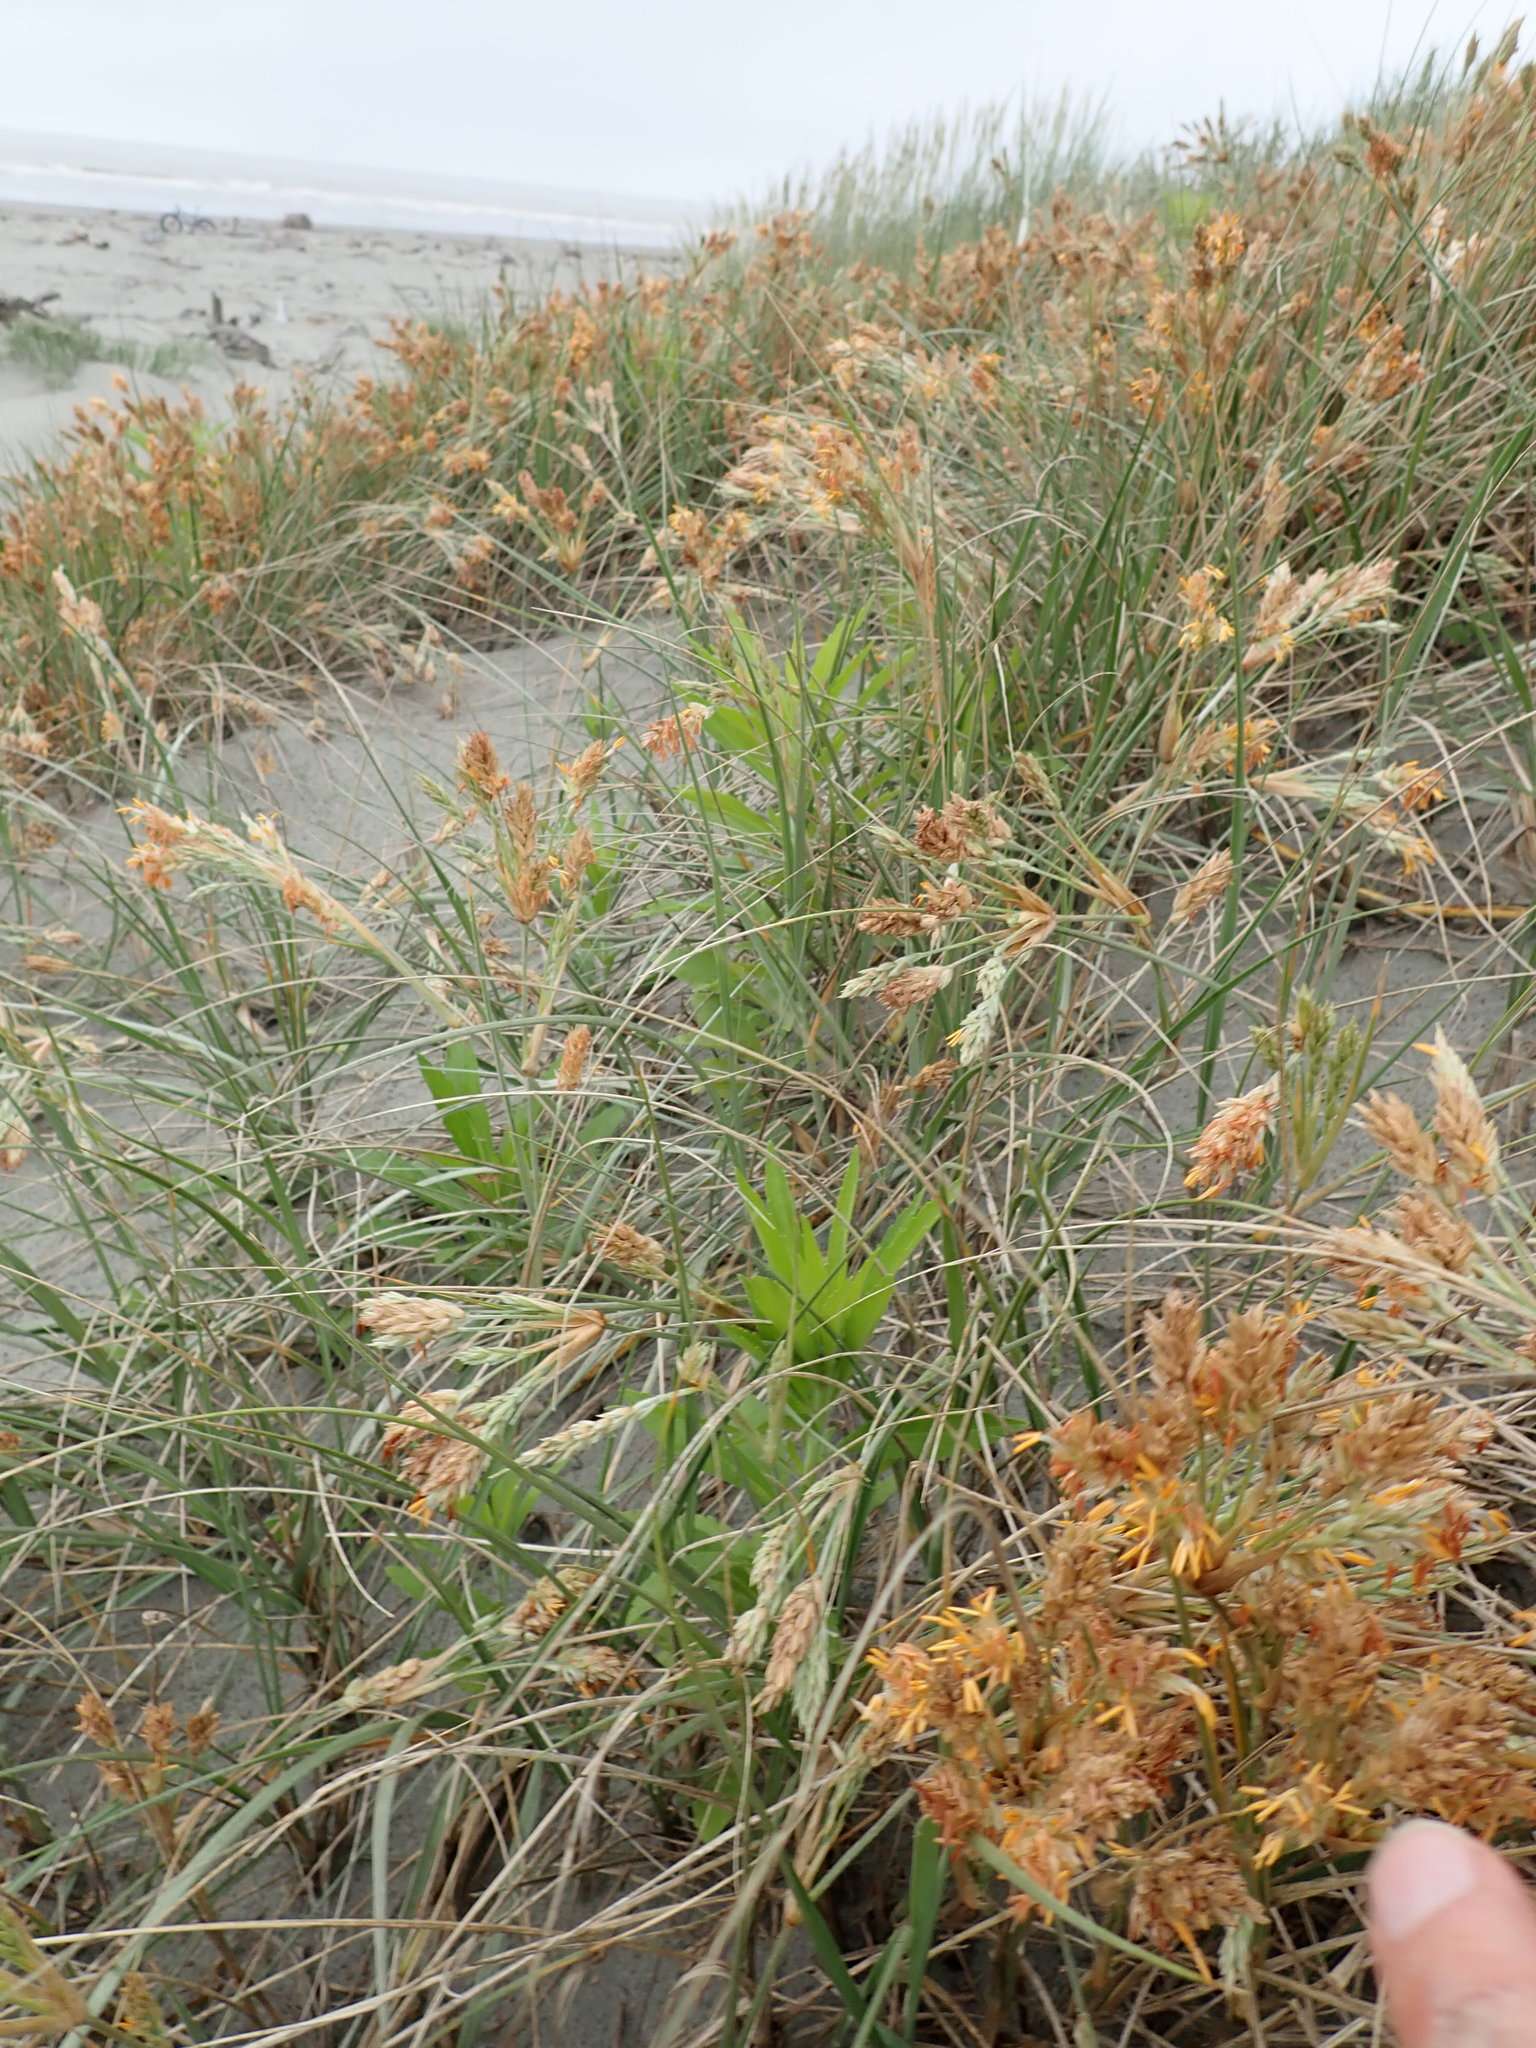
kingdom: Plantae
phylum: Tracheophyta
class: Liliopsida
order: Poales
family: Poaceae
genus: Spinifex
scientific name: Spinifex sericeus
